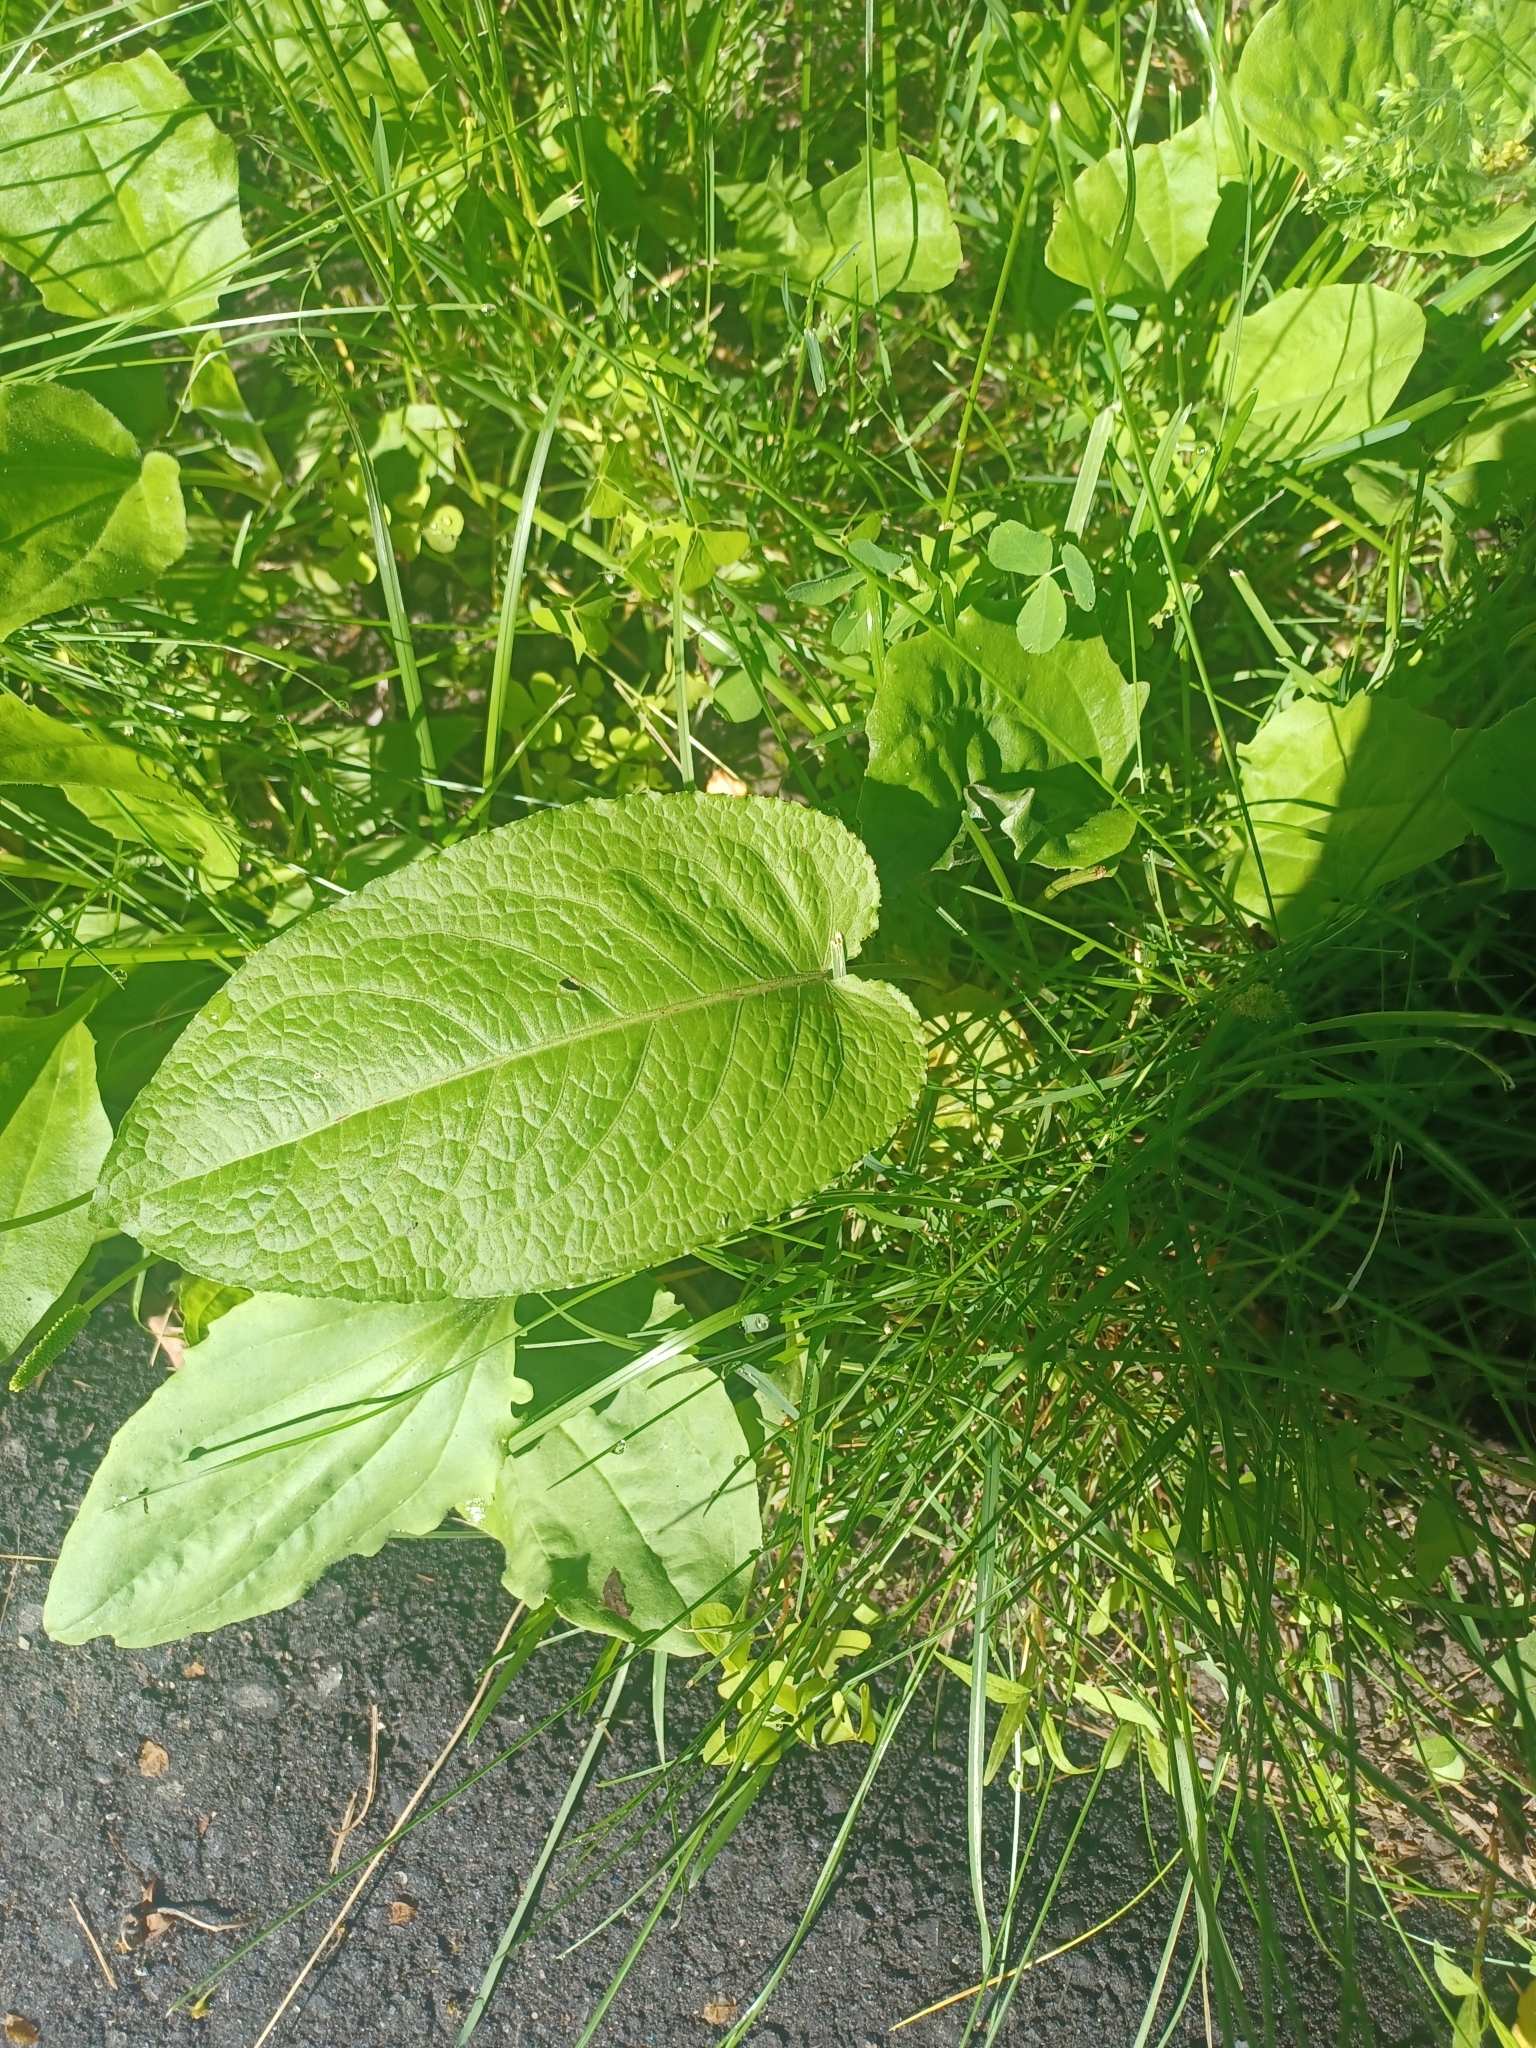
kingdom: Plantae
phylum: Tracheophyta
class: Magnoliopsida
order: Caryophyllales
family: Polygonaceae
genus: Rumex
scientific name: Rumex obtusifolius
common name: Bitter dock
